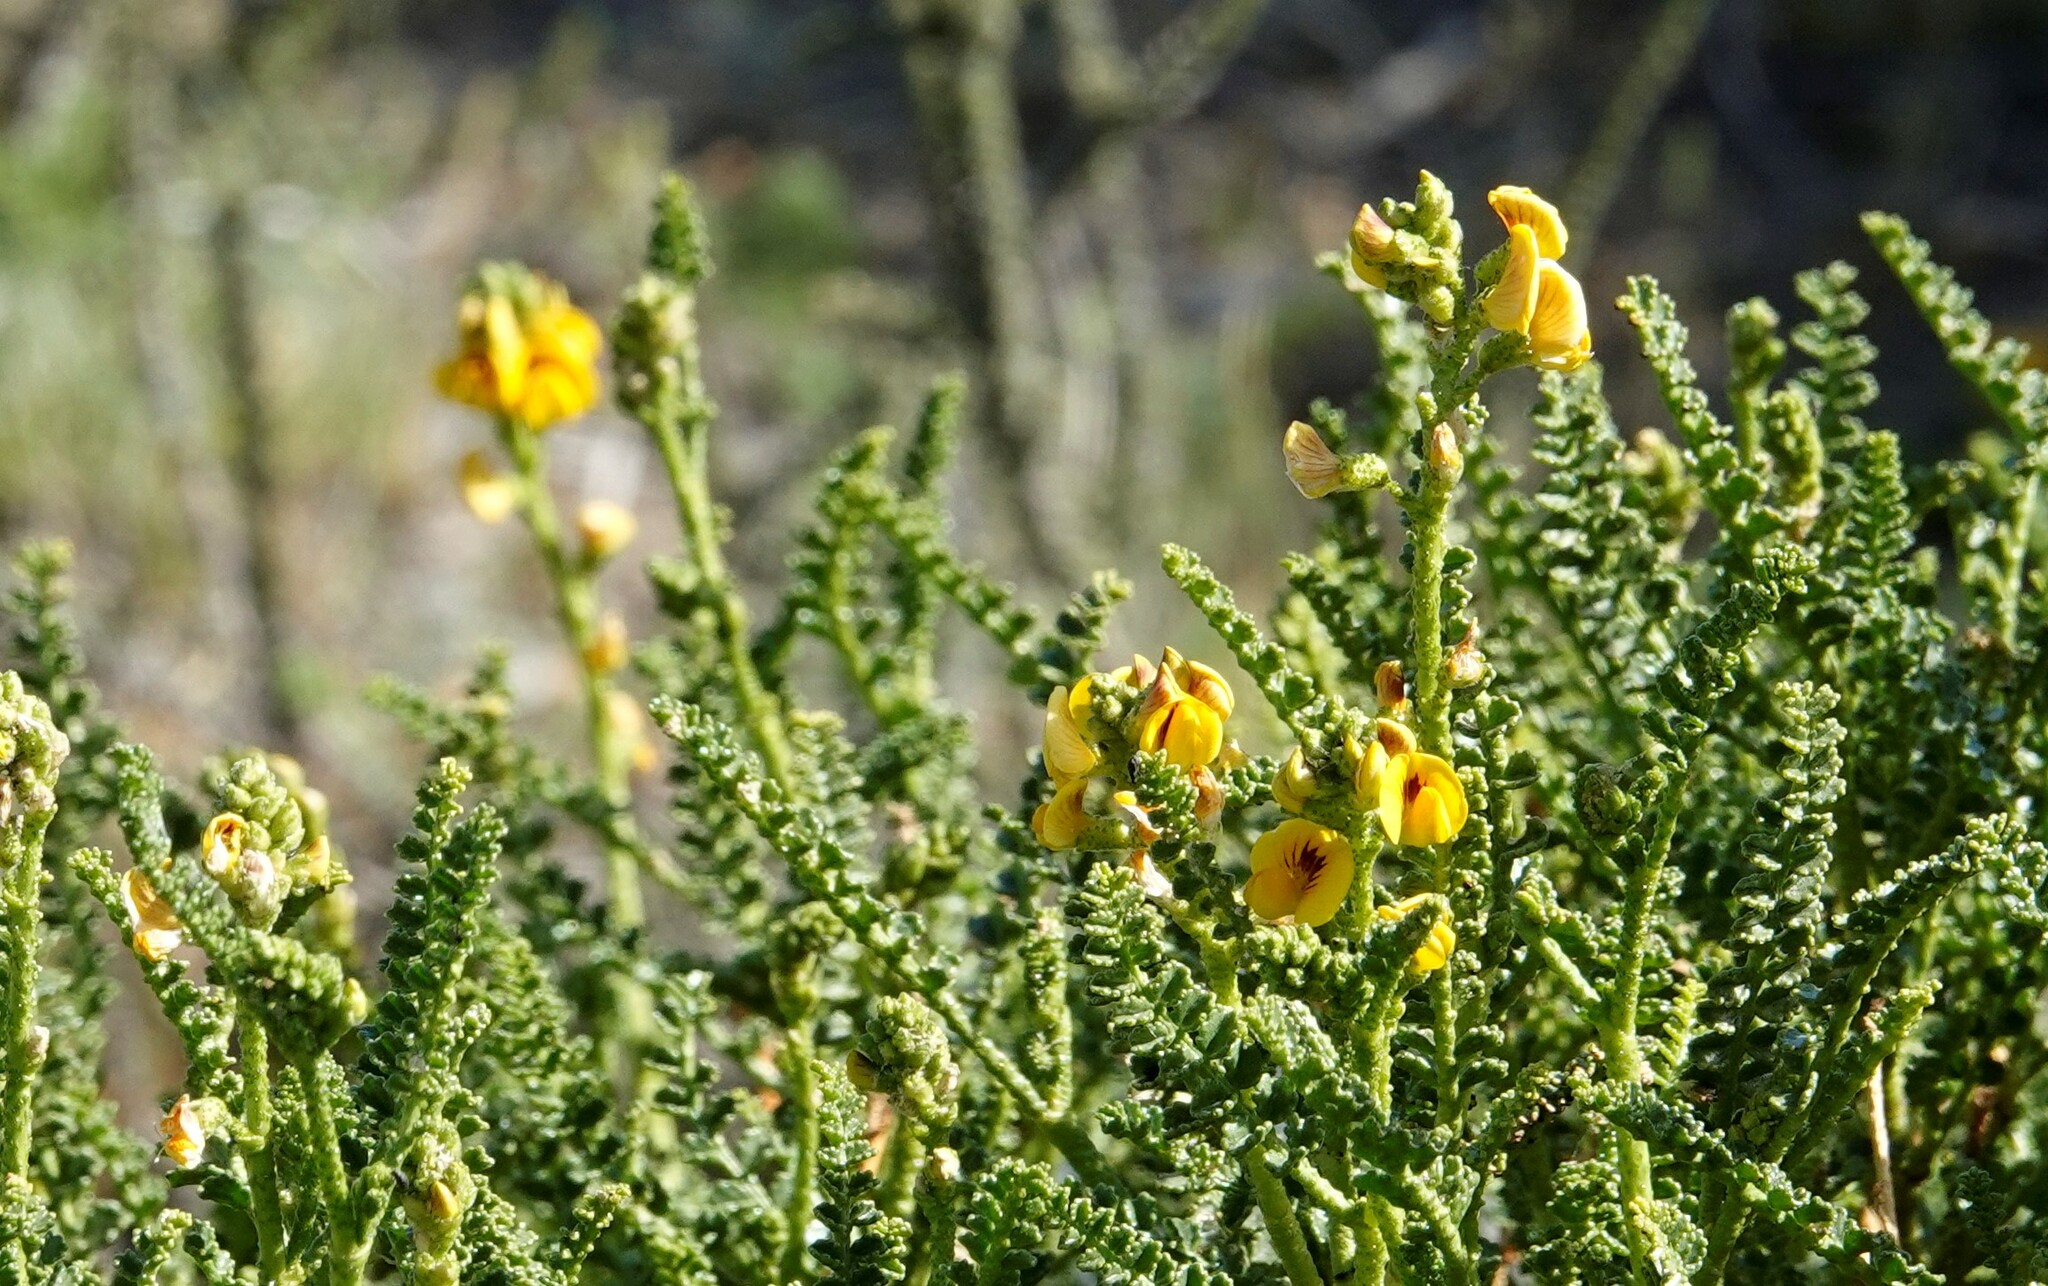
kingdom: Plantae
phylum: Tracheophyta
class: Magnoliopsida
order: Fabales
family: Fabaceae
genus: Adesmia
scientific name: Adesmia boronioides
